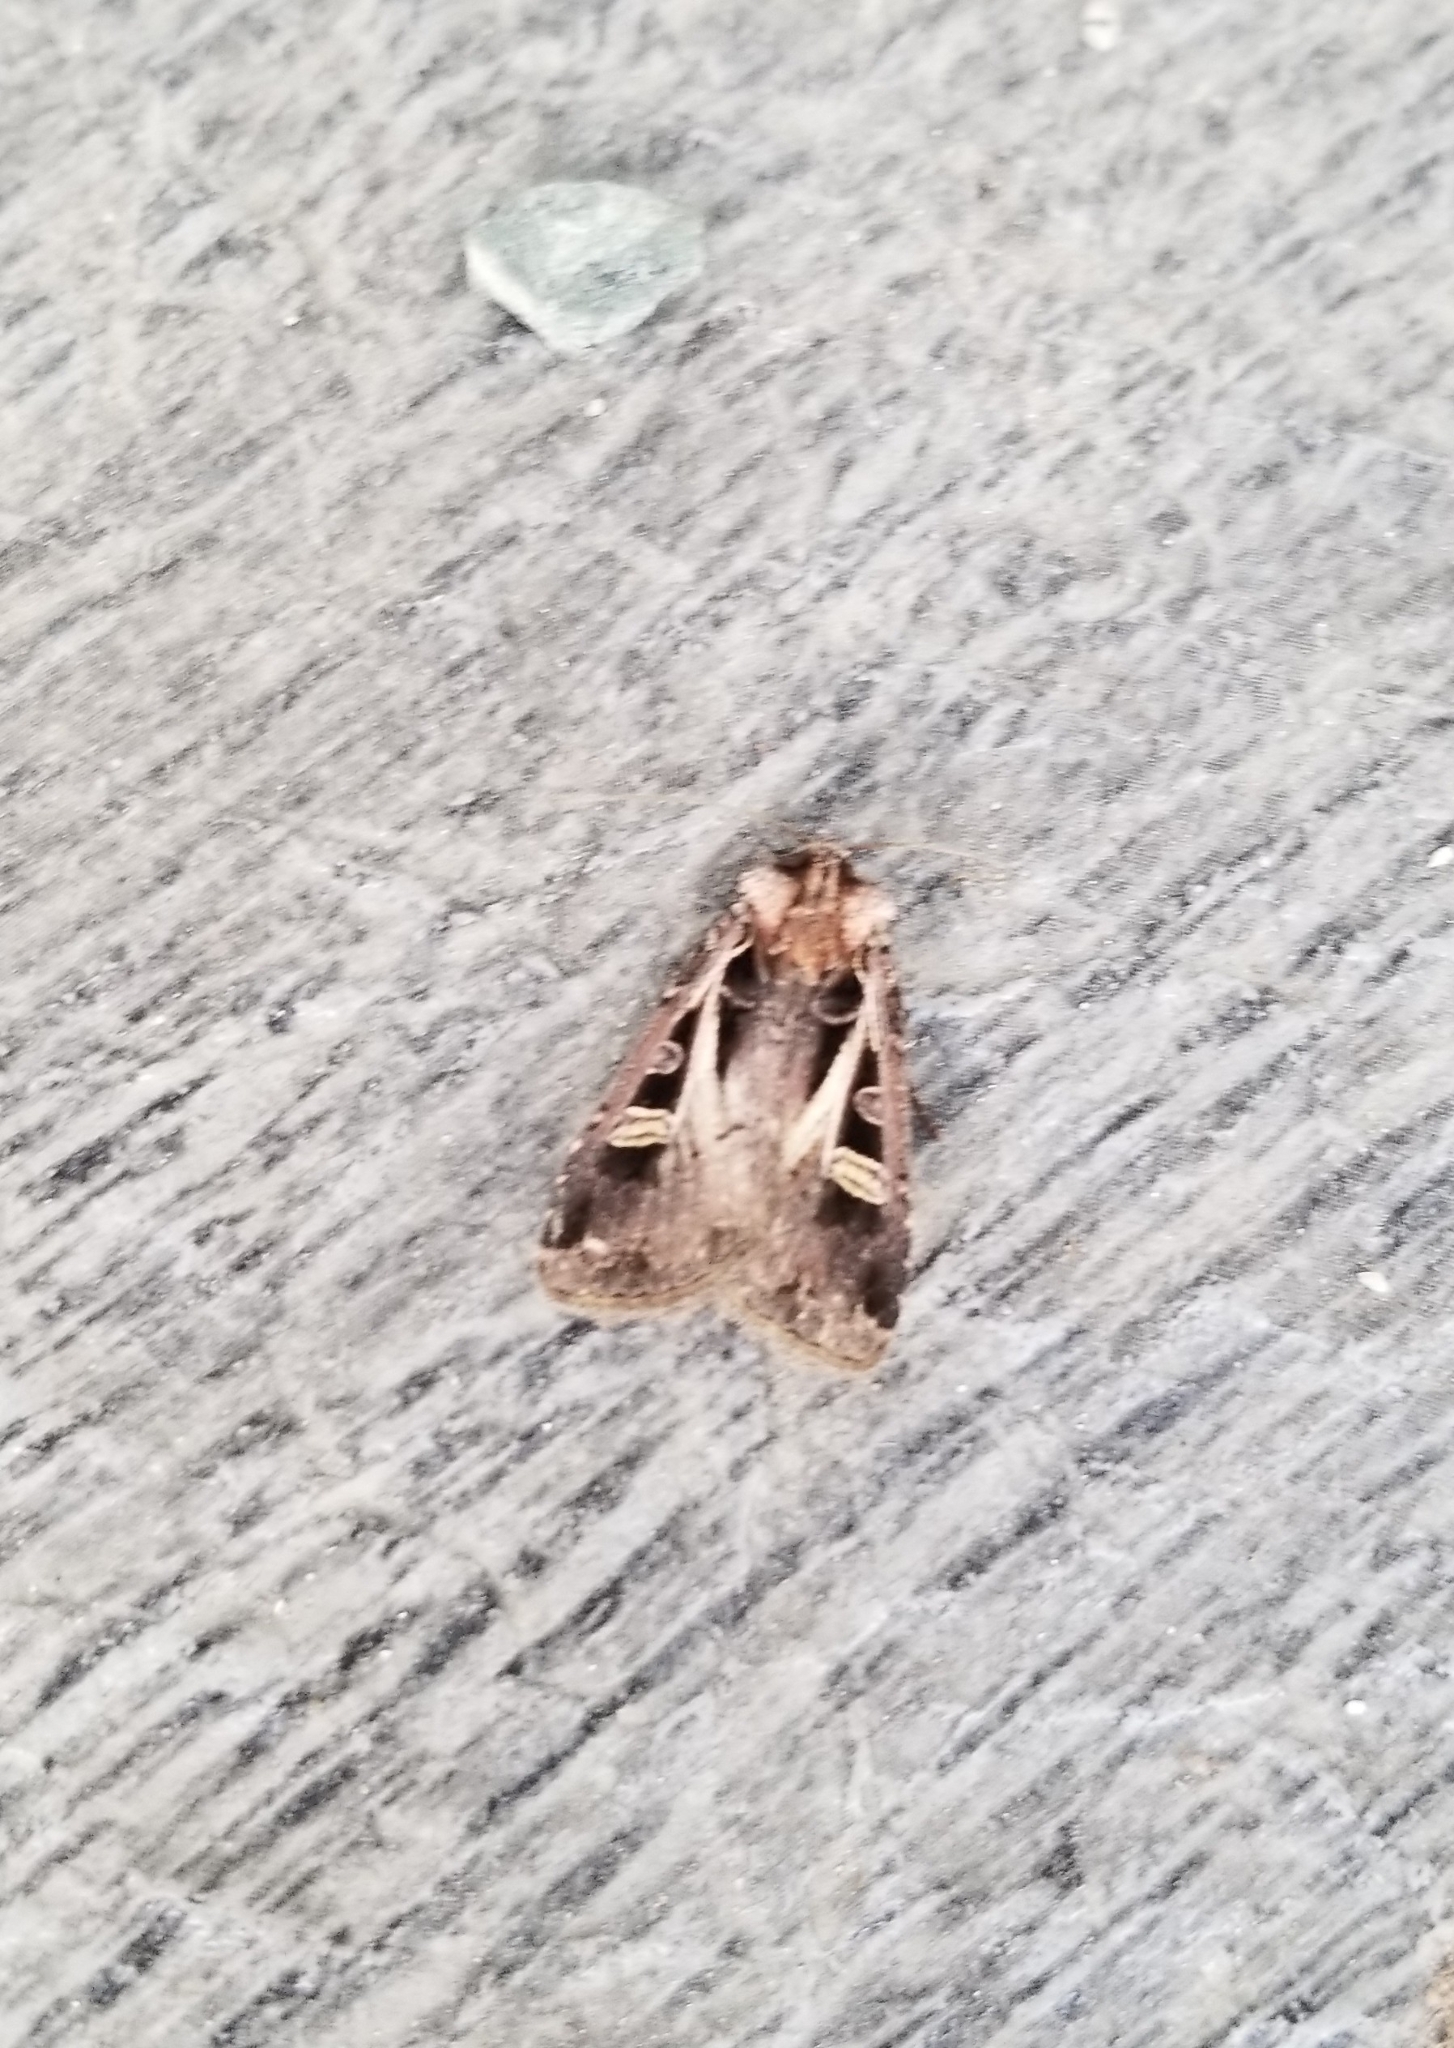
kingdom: Animalia
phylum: Arthropoda
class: Insecta
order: Lepidoptera
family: Noctuidae
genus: Feltia
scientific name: Feltia herilis
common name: Master's dart
